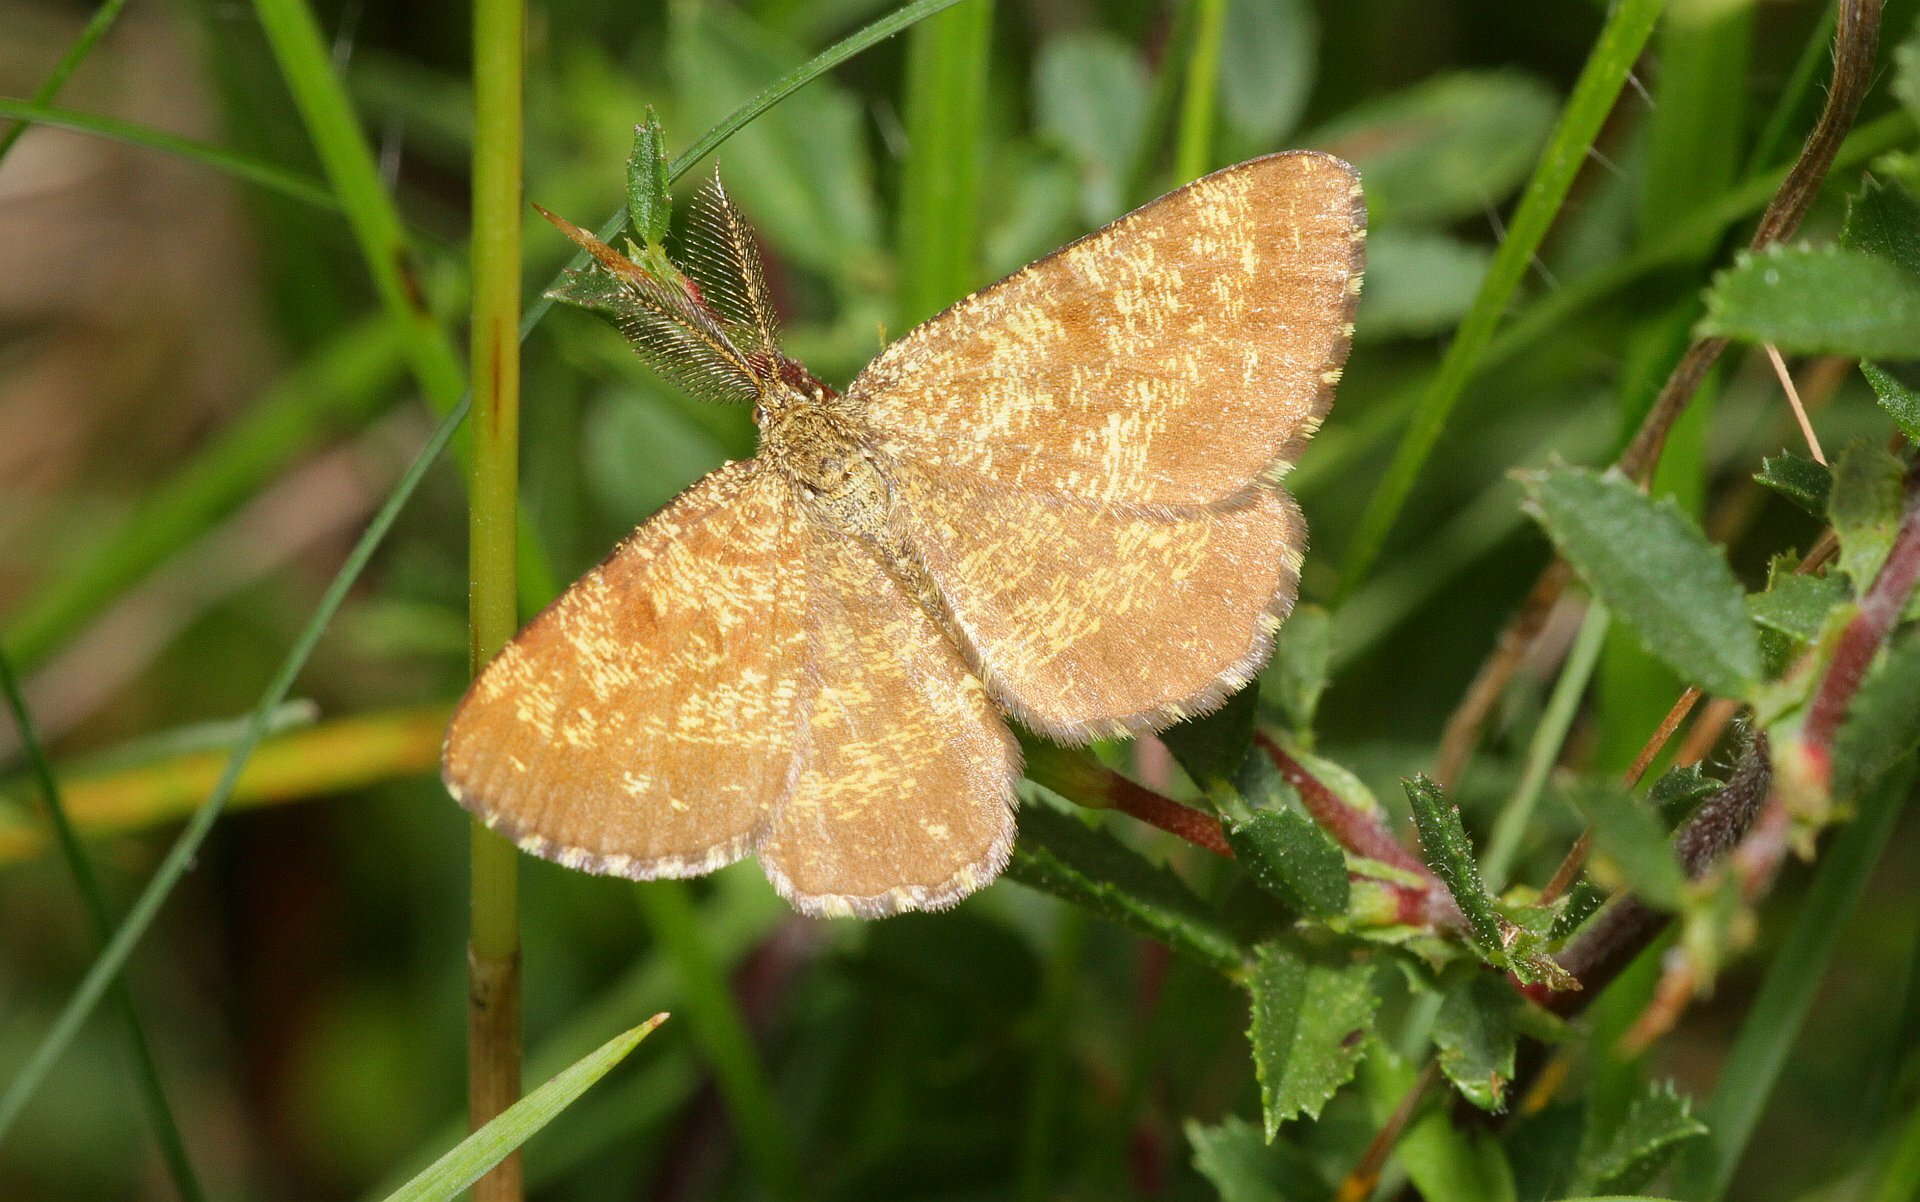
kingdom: Animalia
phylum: Arthropoda
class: Insecta
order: Lepidoptera
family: Geometridae
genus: Ematurga
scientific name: Ematurga atomaria
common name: Common heath
